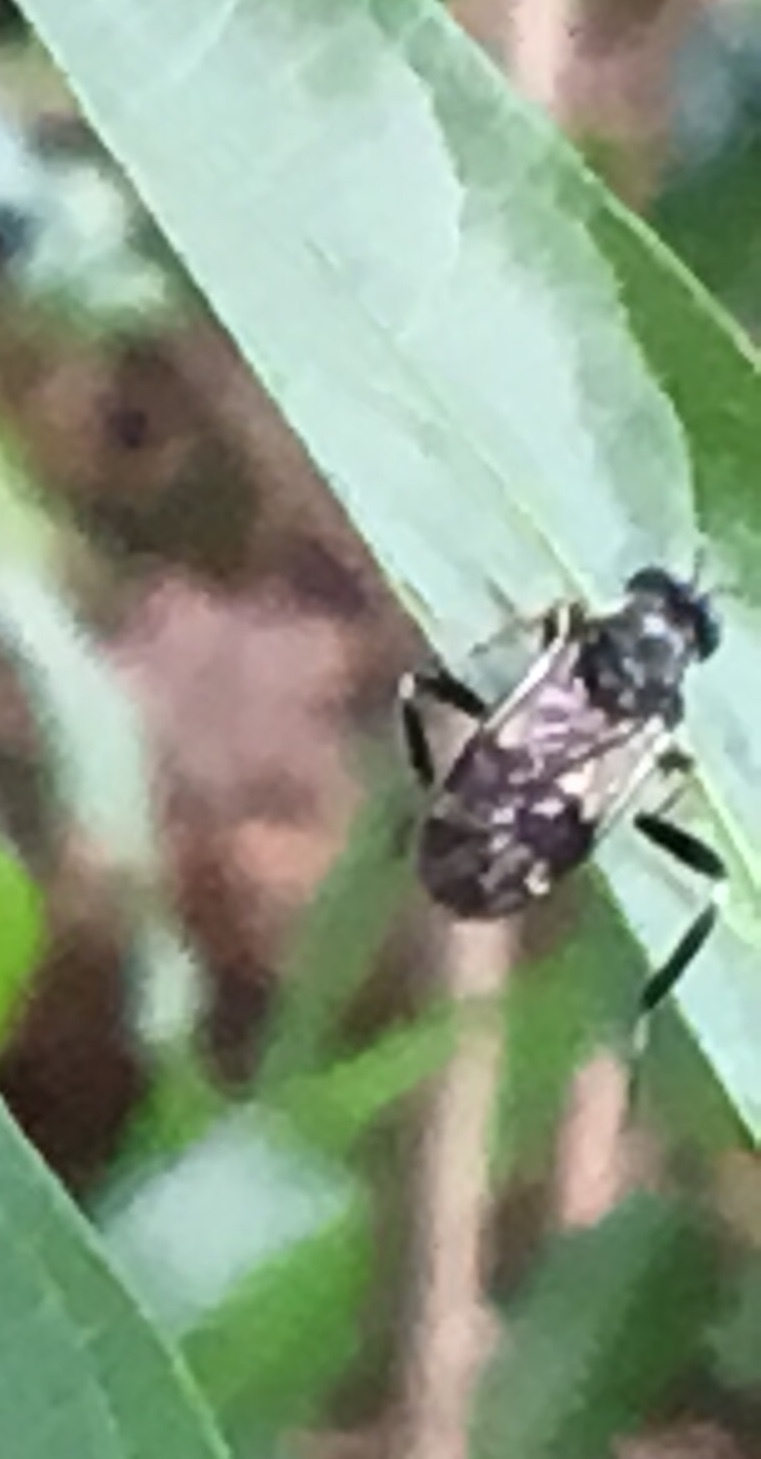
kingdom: Animalia
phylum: Arthropoda
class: Insecta
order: Diptera
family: Stratiomyidae
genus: Exaireta
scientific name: Exaireta spinigera
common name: Blue soldier fly
